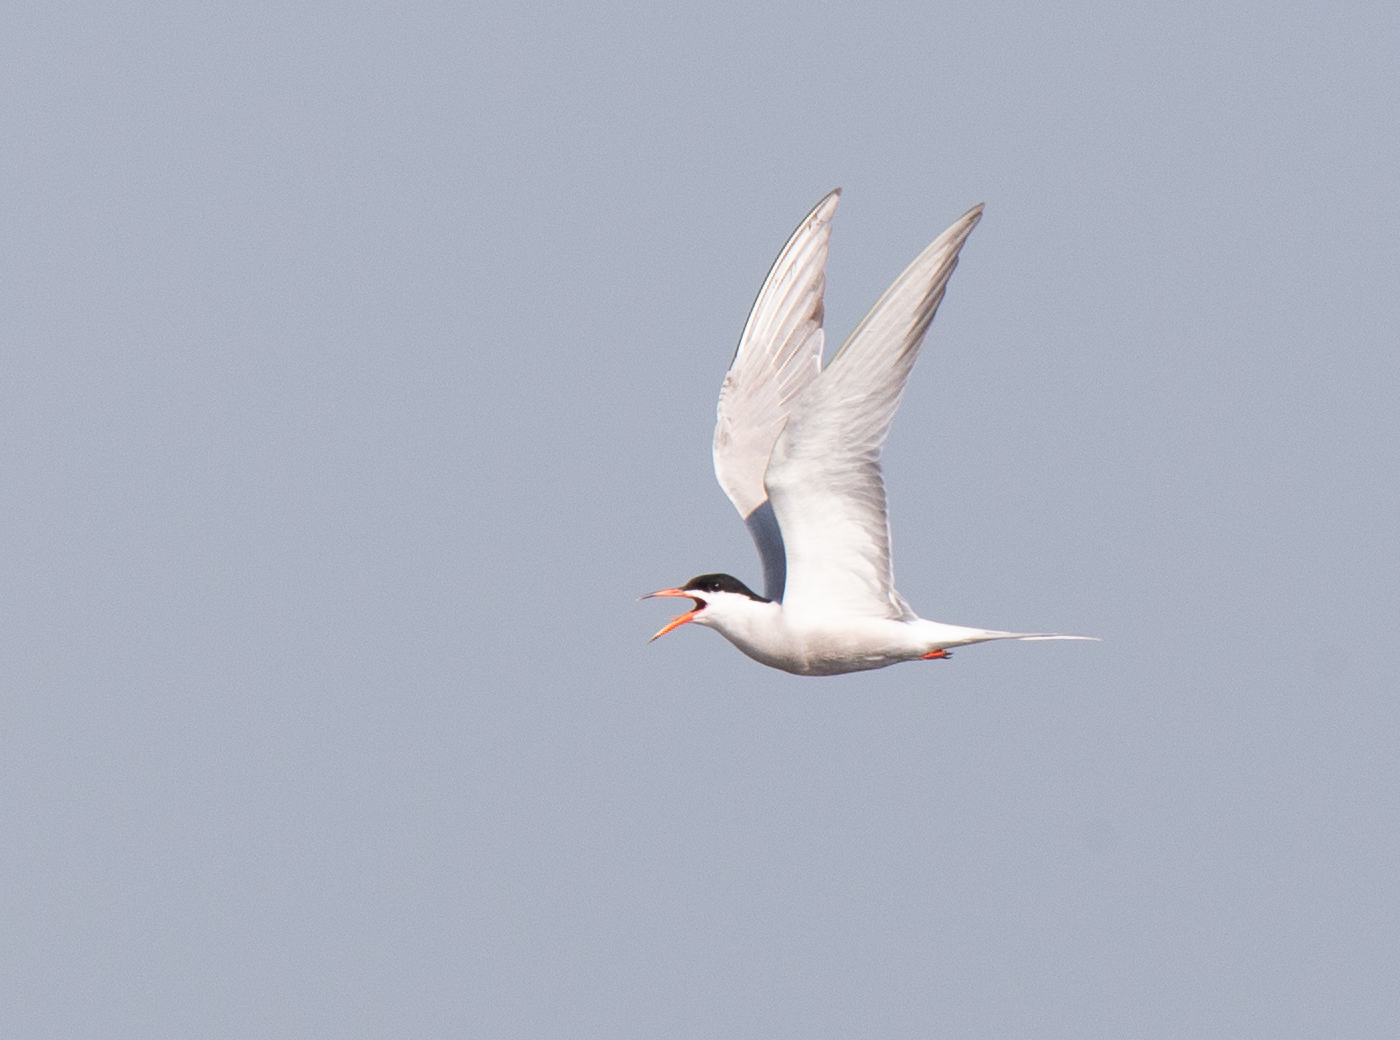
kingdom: Animalia
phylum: Chordata
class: Aves
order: Charadriiformes
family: Laridae
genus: Sterna
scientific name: Sterna hirundo
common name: Common tern
